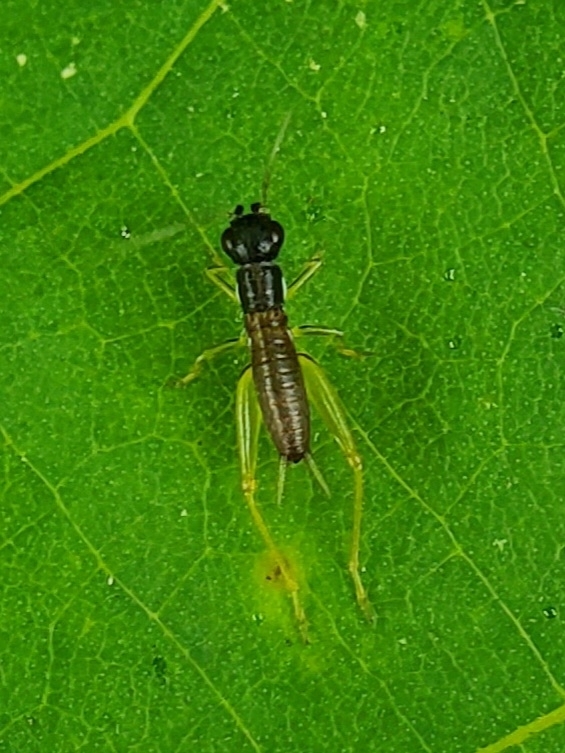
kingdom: Animalia
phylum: Arthropoda
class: Insecta
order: Orthoptera
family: Trigonidiidae
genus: Phyllopalpus
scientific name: Phyllopalpus pulchellus
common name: Handsome trig
